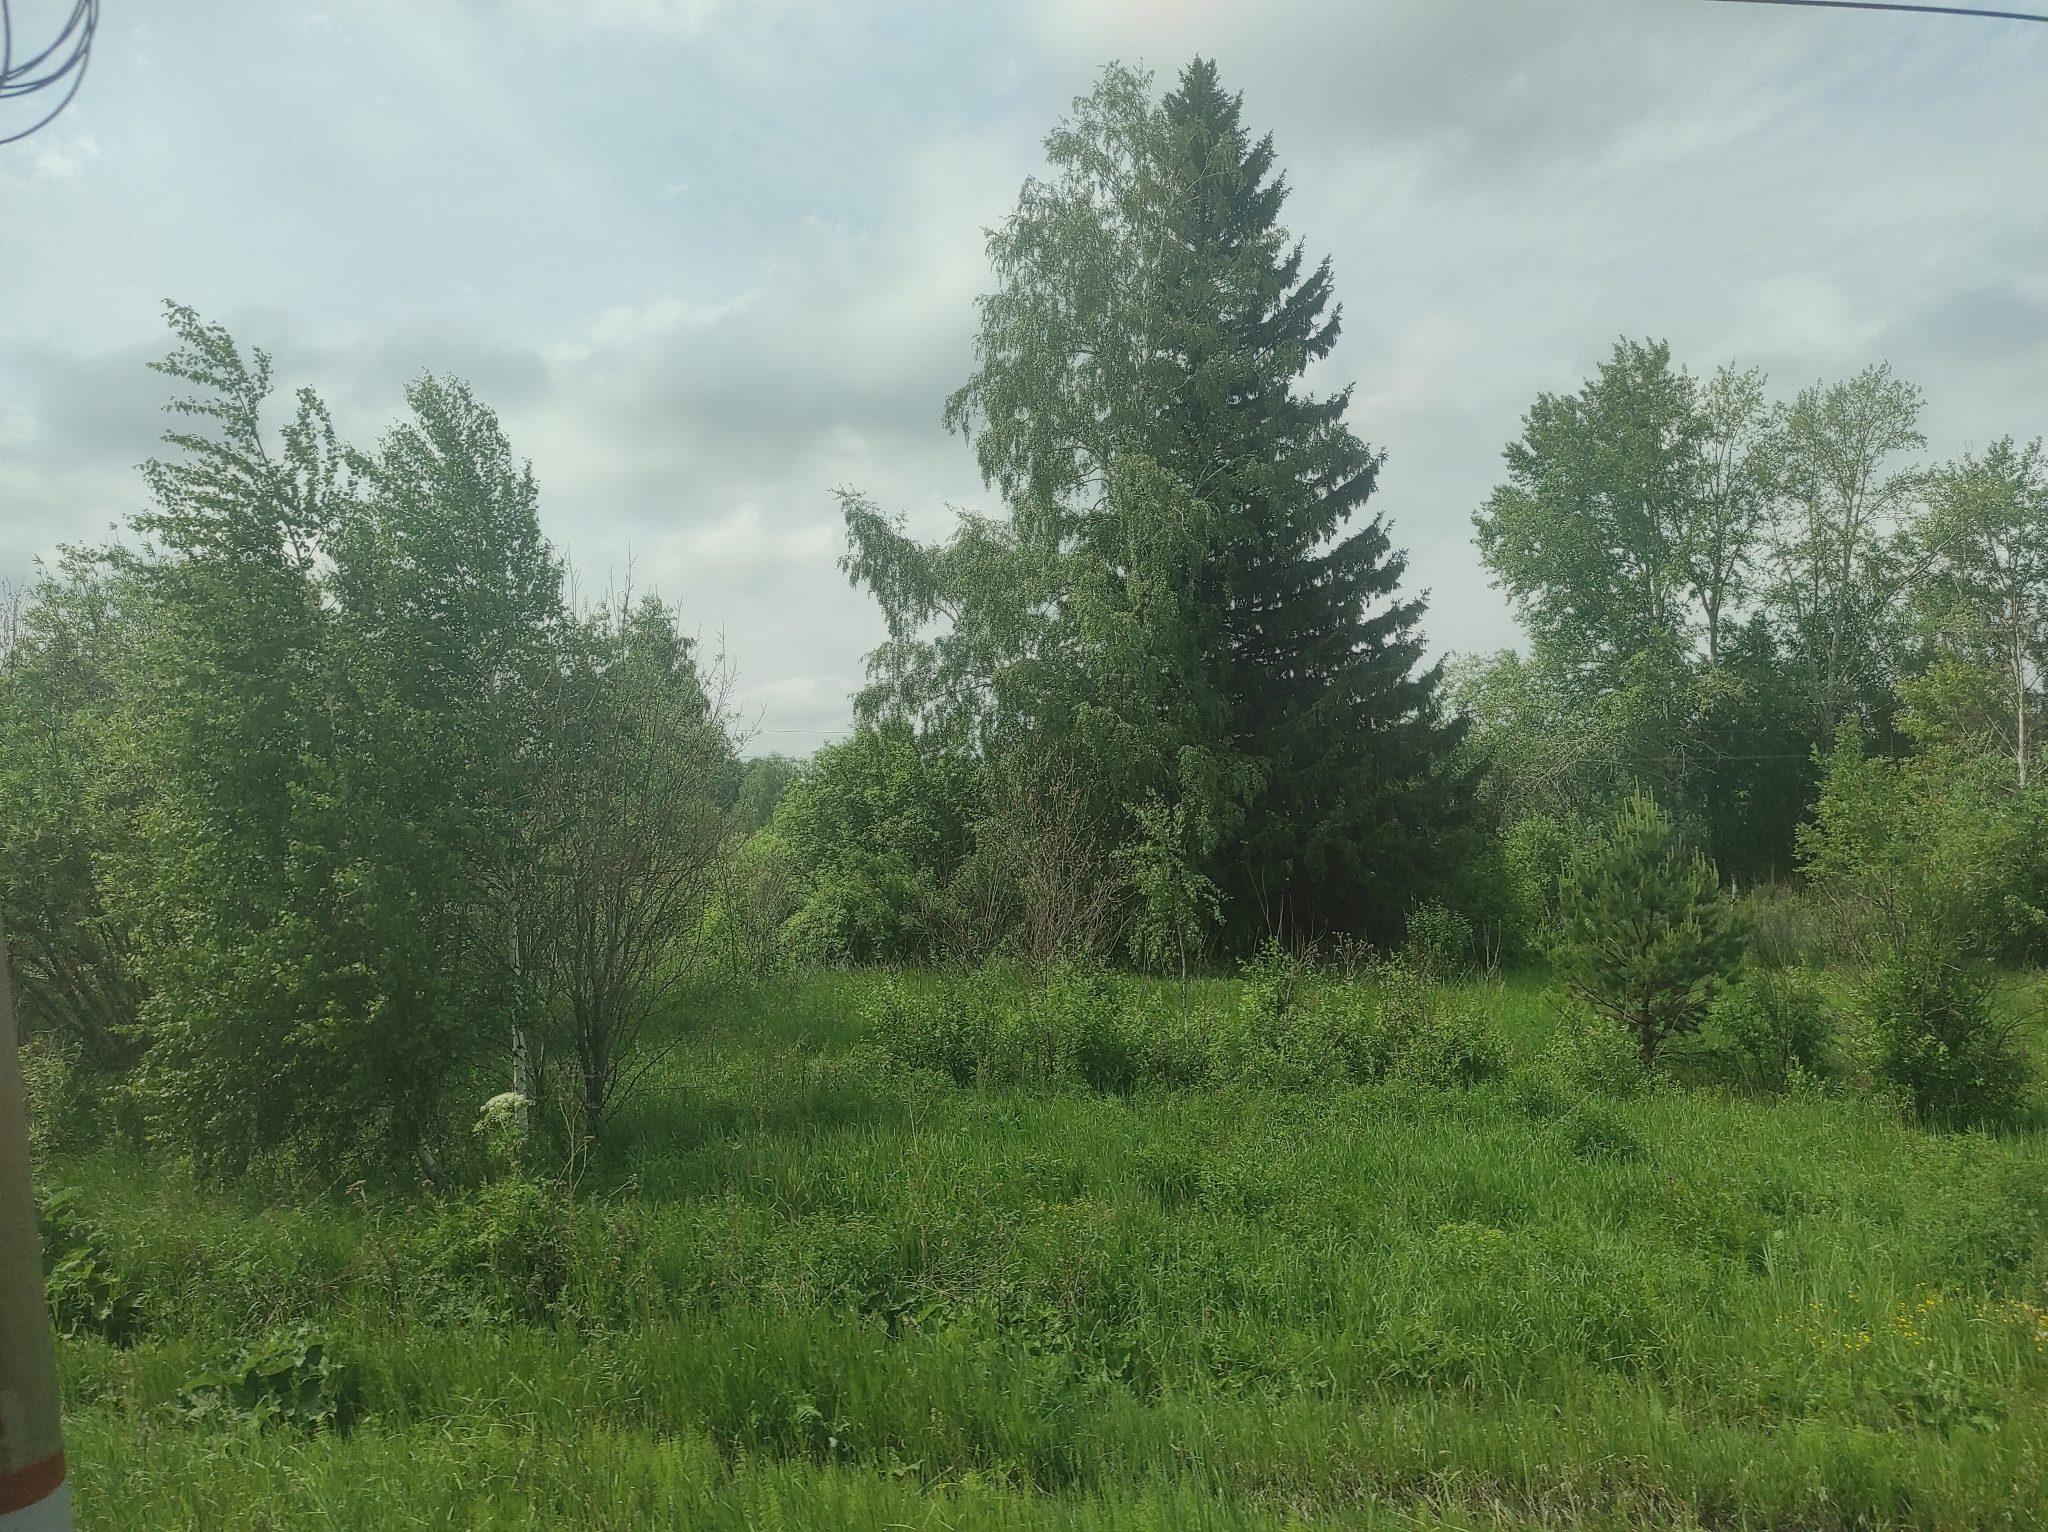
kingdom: Plantae
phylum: Tracheophyta
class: Pinopsida
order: Pinales
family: Pinaceae
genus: Picea
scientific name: Picea obovata
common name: Siberian spruce
